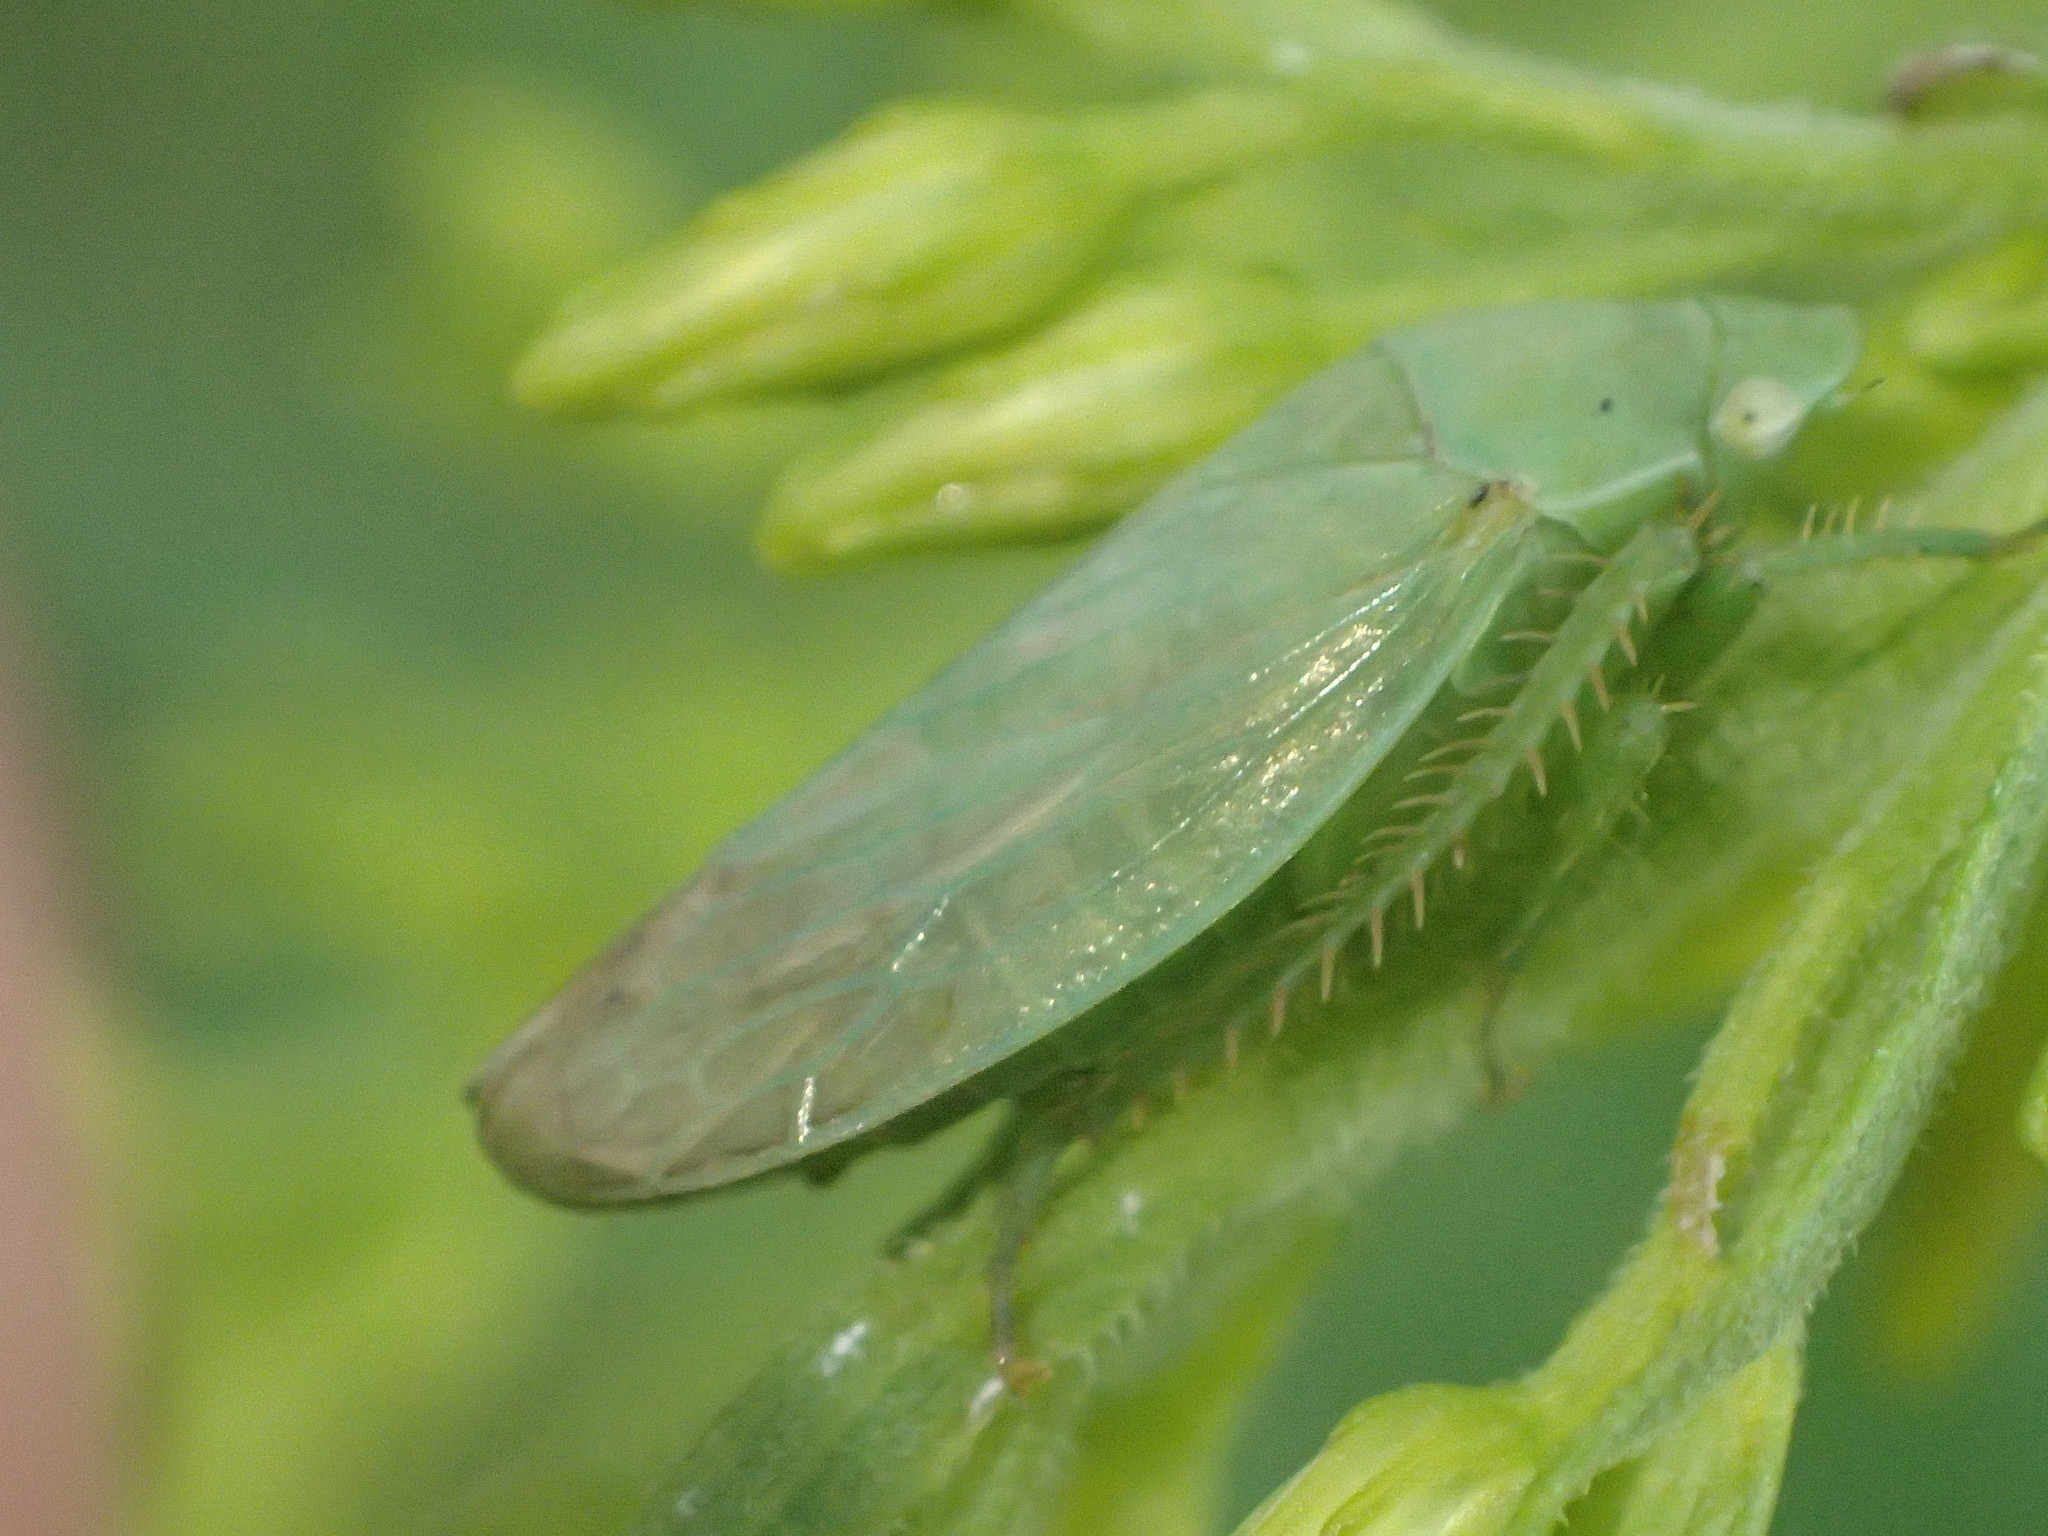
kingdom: Animalia
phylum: Arthropoda
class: Insecta
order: Hemiptera
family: Cicadellidae
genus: Gypona
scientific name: Gypona
